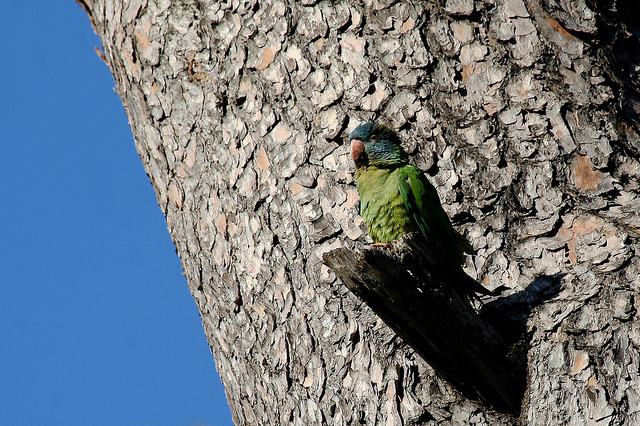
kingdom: Animalia
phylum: Chordata
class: Aves
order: Psittaciformes
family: Psittacidae
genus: Aratinga
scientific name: Aratinga acuticaudata
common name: Blue-crowned parakeet
